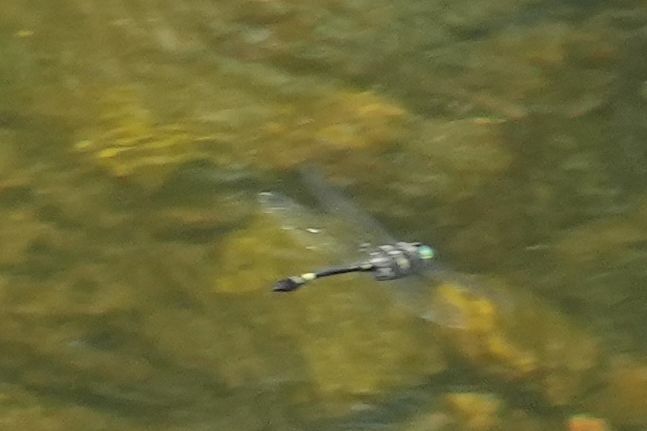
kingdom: Animalia
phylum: Arthropoda
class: Insecta
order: Odonata
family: Macromiidae
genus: Macromia
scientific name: Macromia illinoiensis
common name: Swift river cruiser
